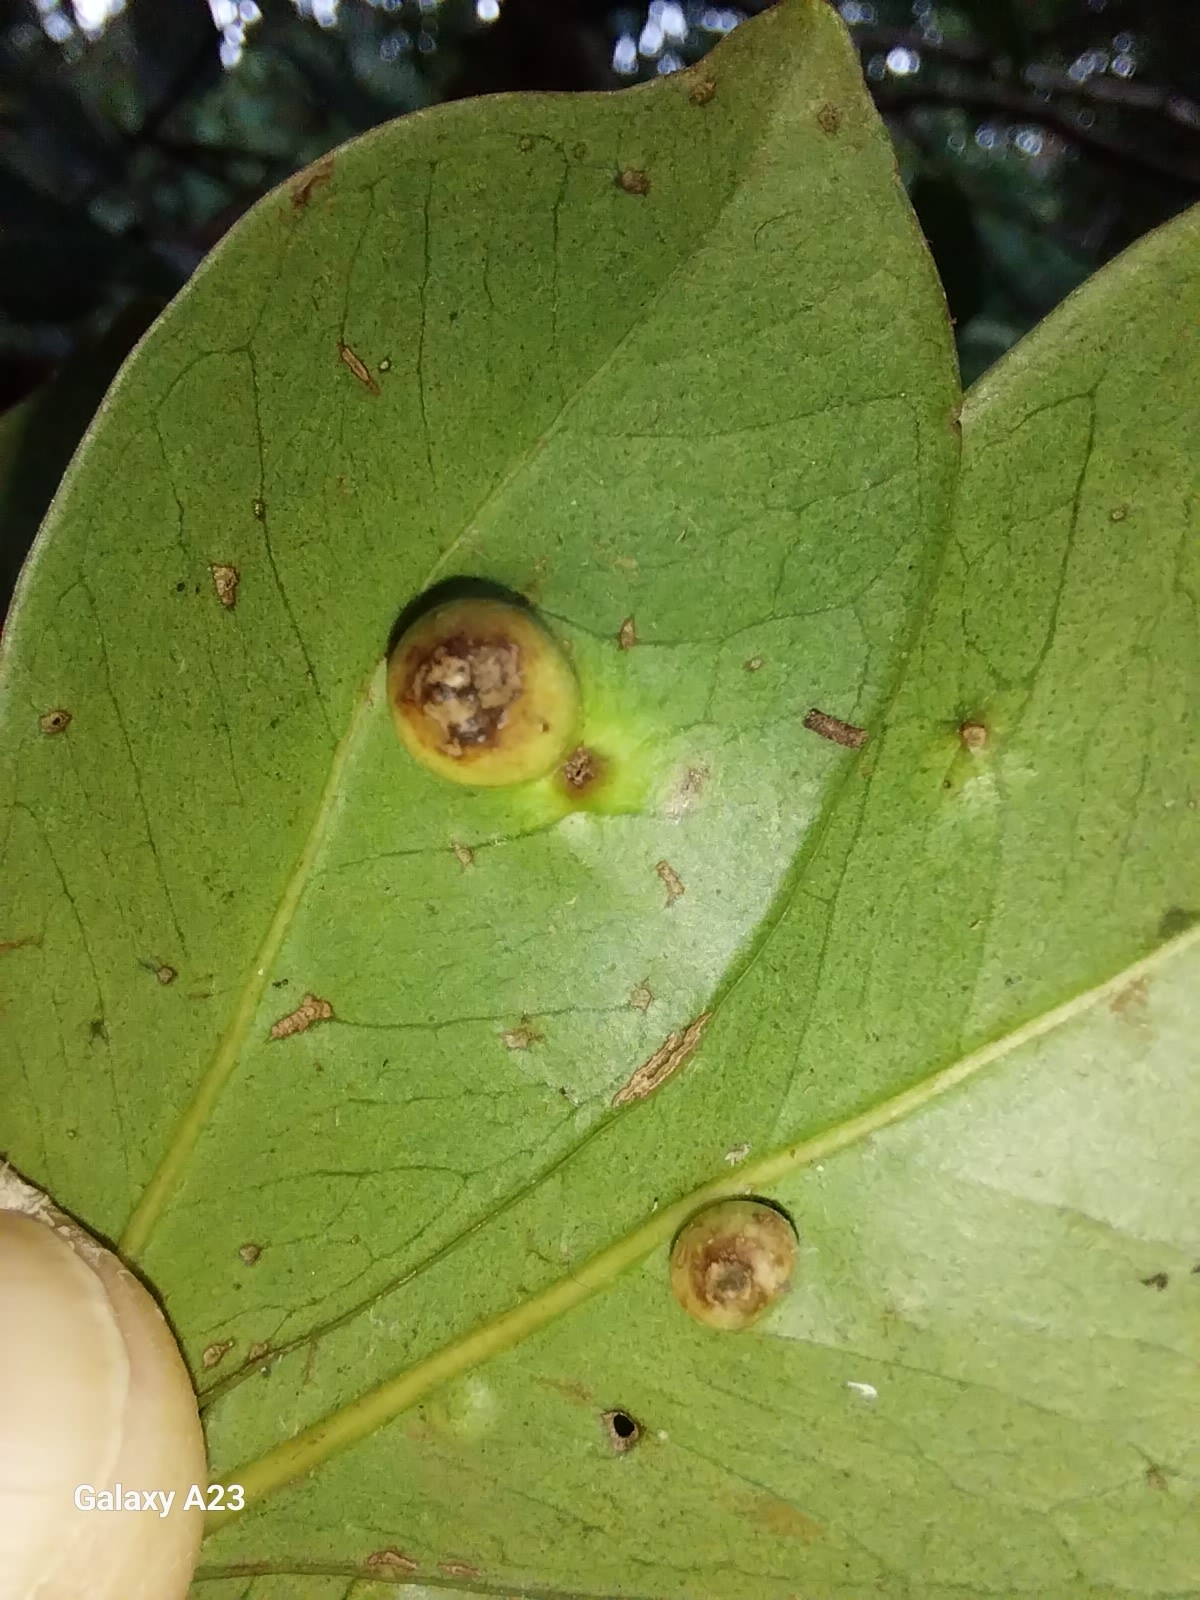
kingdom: Animalia
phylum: Arthropoda
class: Insecta
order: Hemiptera
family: Eriococcidae
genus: Tectococcus
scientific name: Tectococcus ovatus
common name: Eriococcid scale
